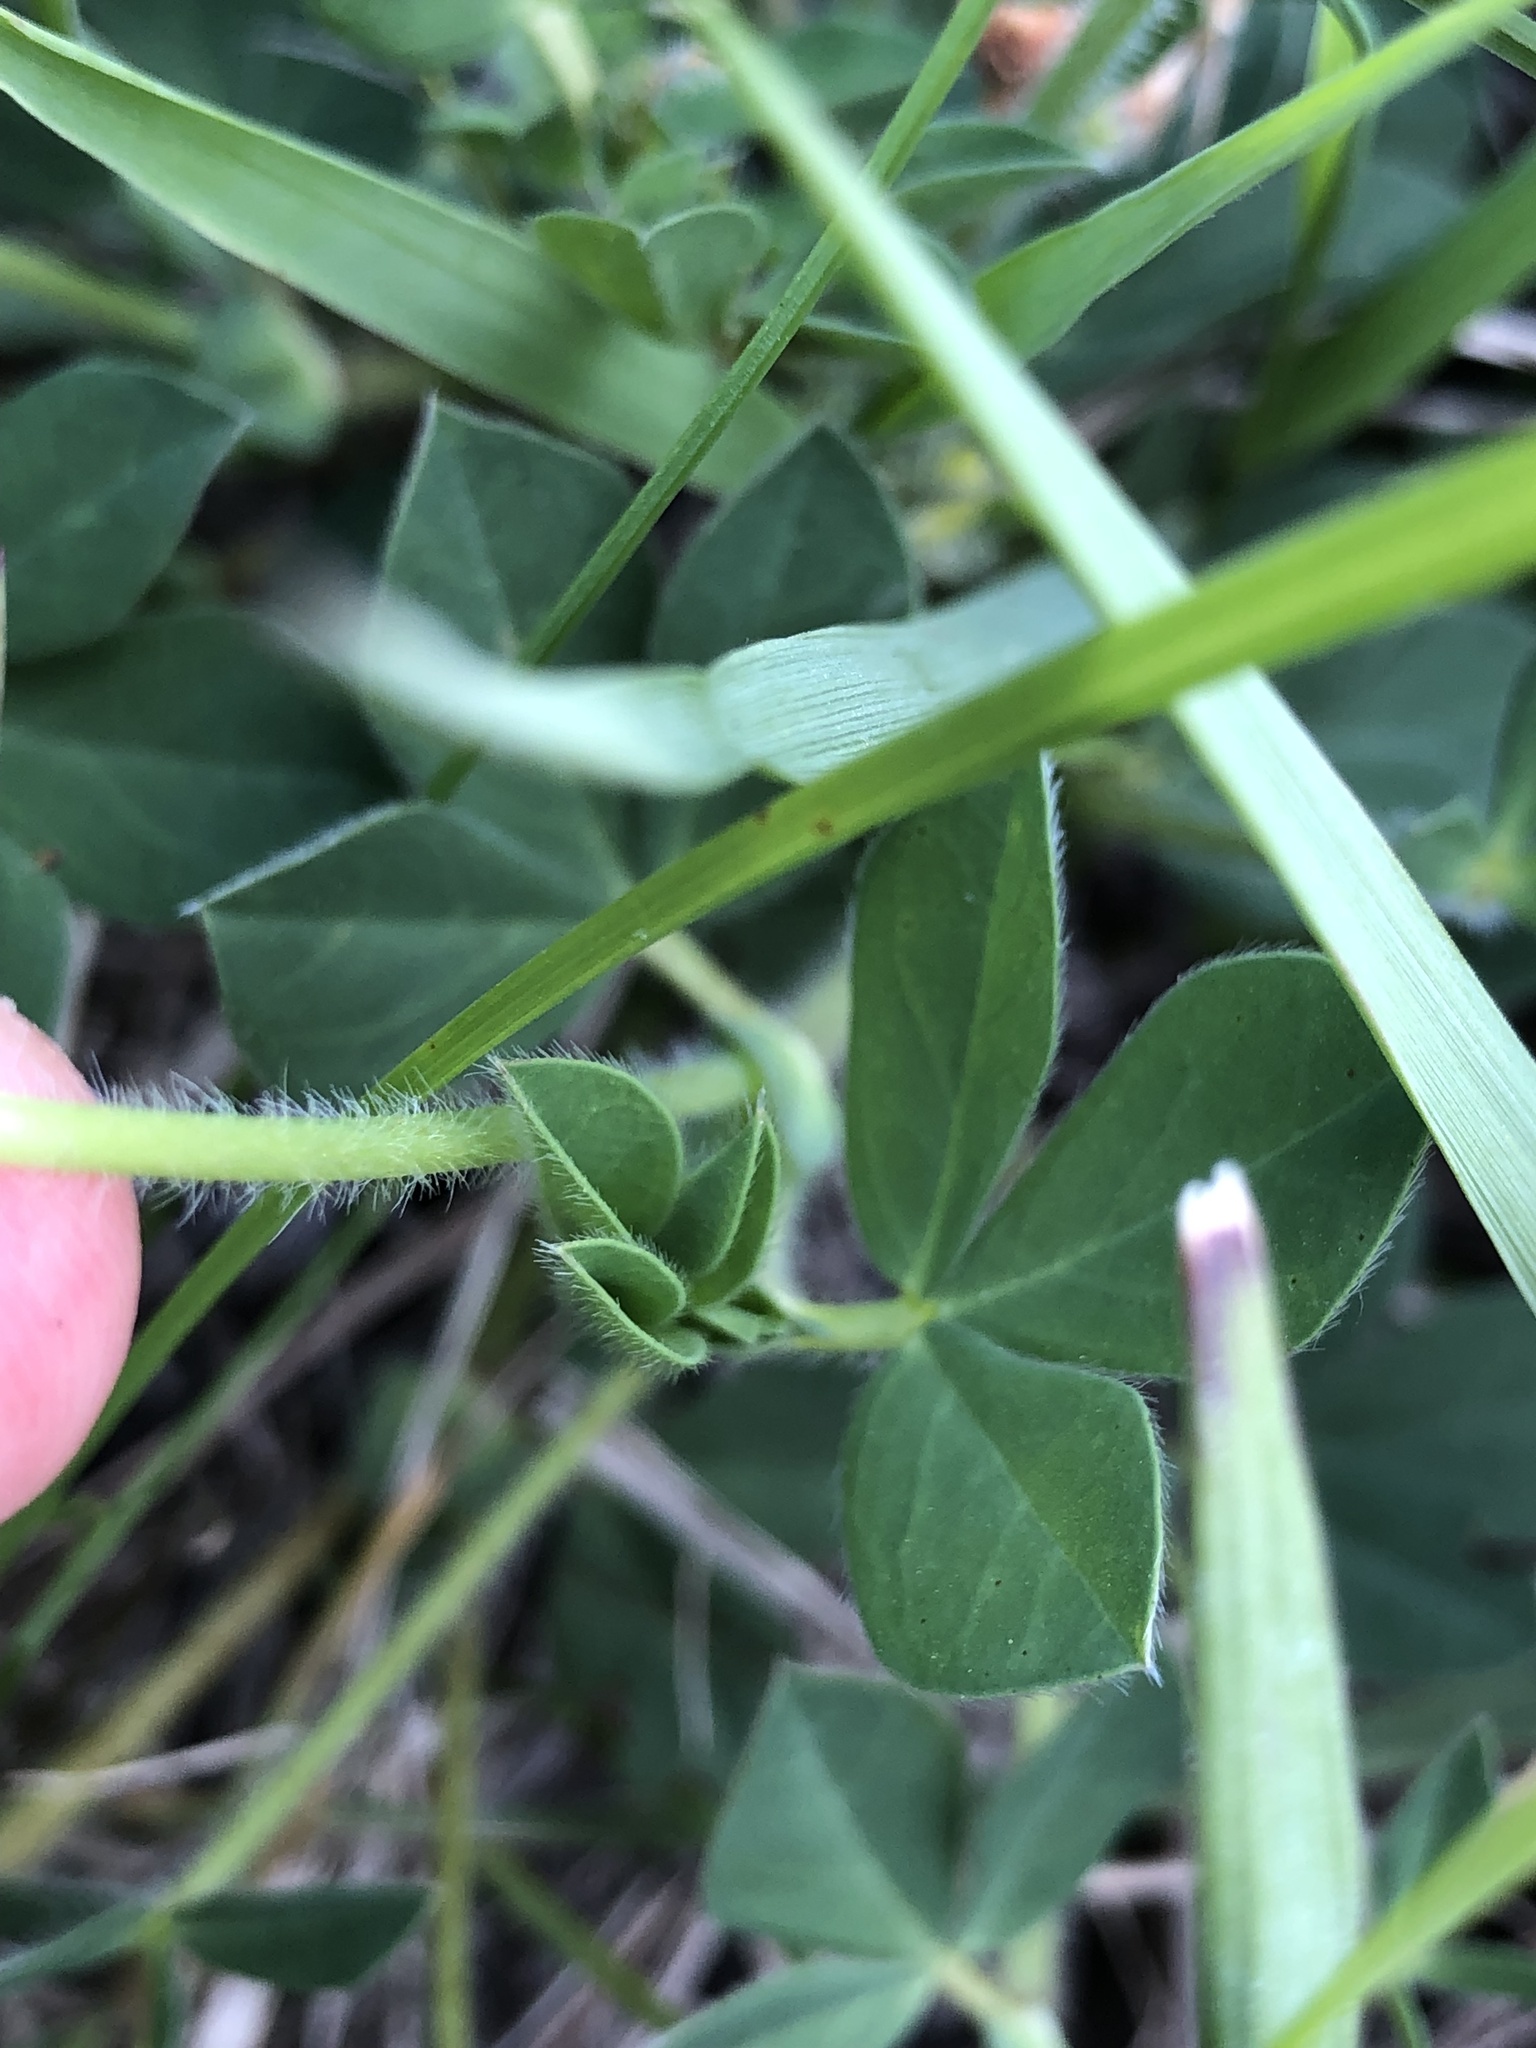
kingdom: Plantae
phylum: Tracheophyta
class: Magnoliopsida
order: Fabales
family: Fabaceae
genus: Lotus
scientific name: Lotus maritimus
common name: Dragon's-teeth
